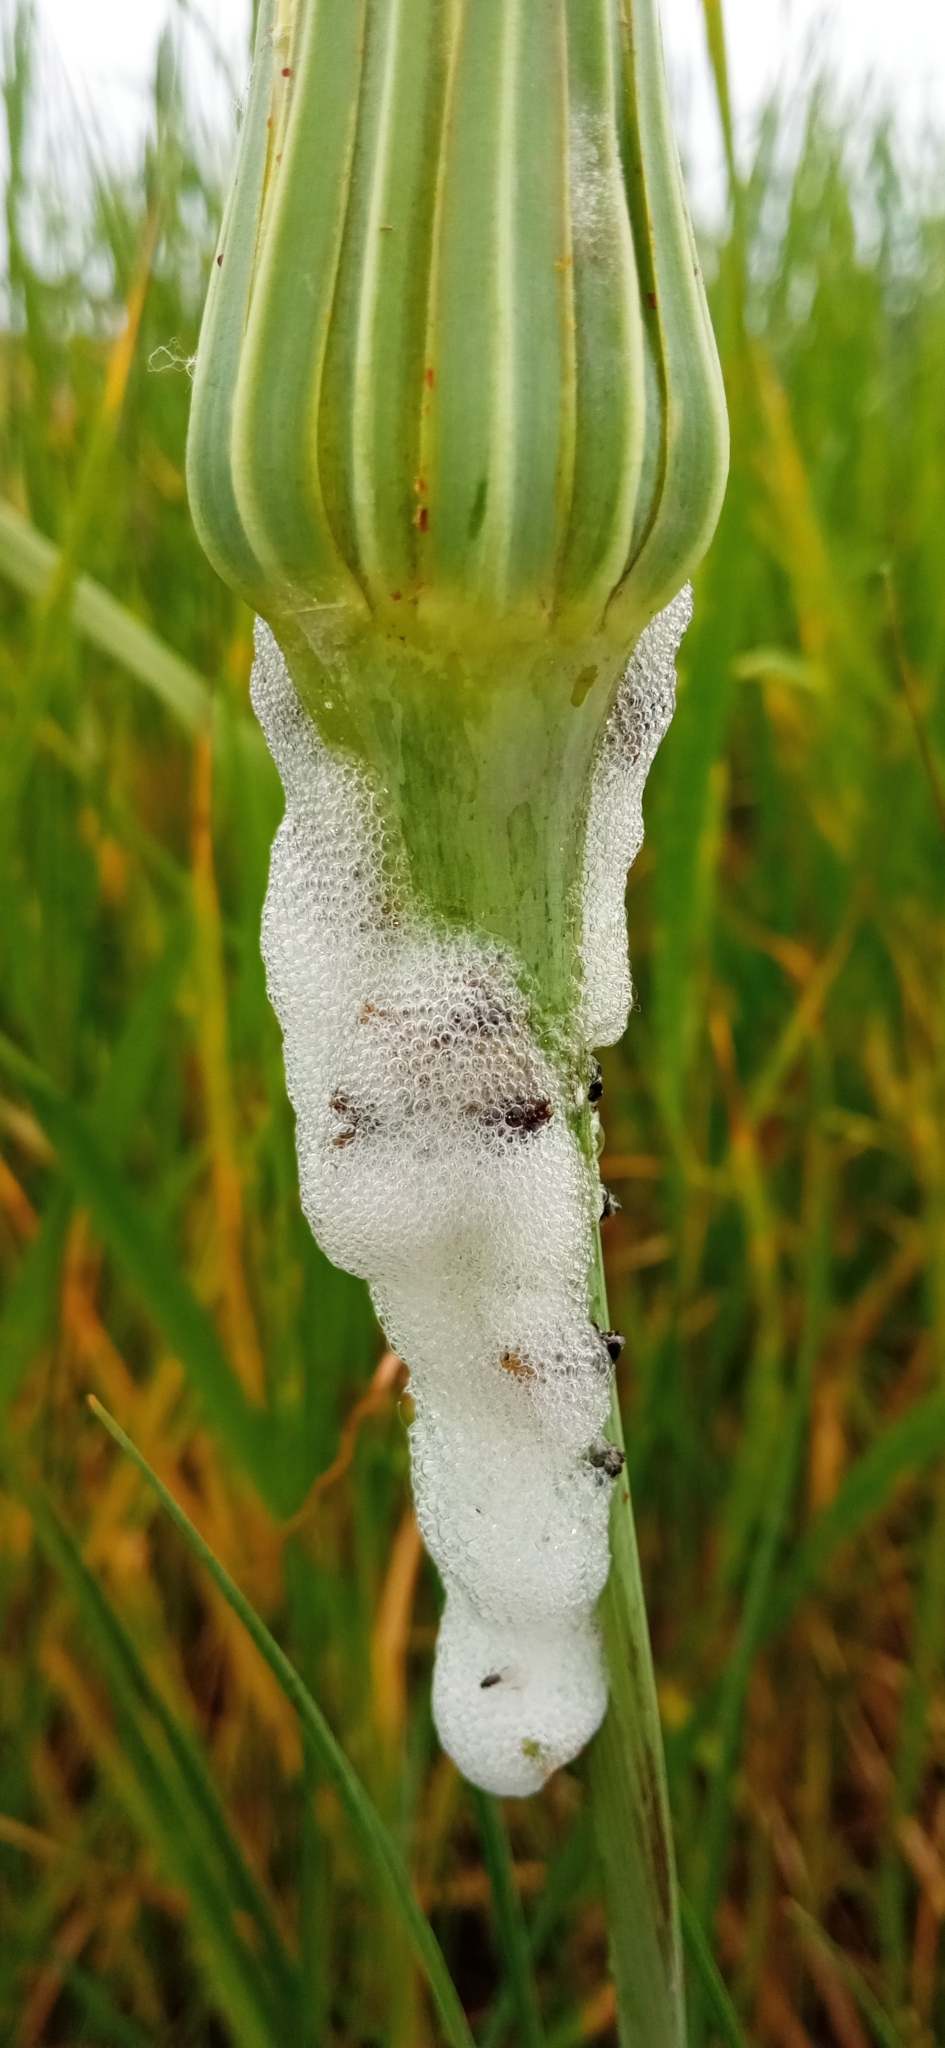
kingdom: Animalia
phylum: Arthropoda
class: Insecta
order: Hemiptera
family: Aphrophoridae
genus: Philaenus
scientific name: Philaenus spumarius
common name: Meadow spittlebug
